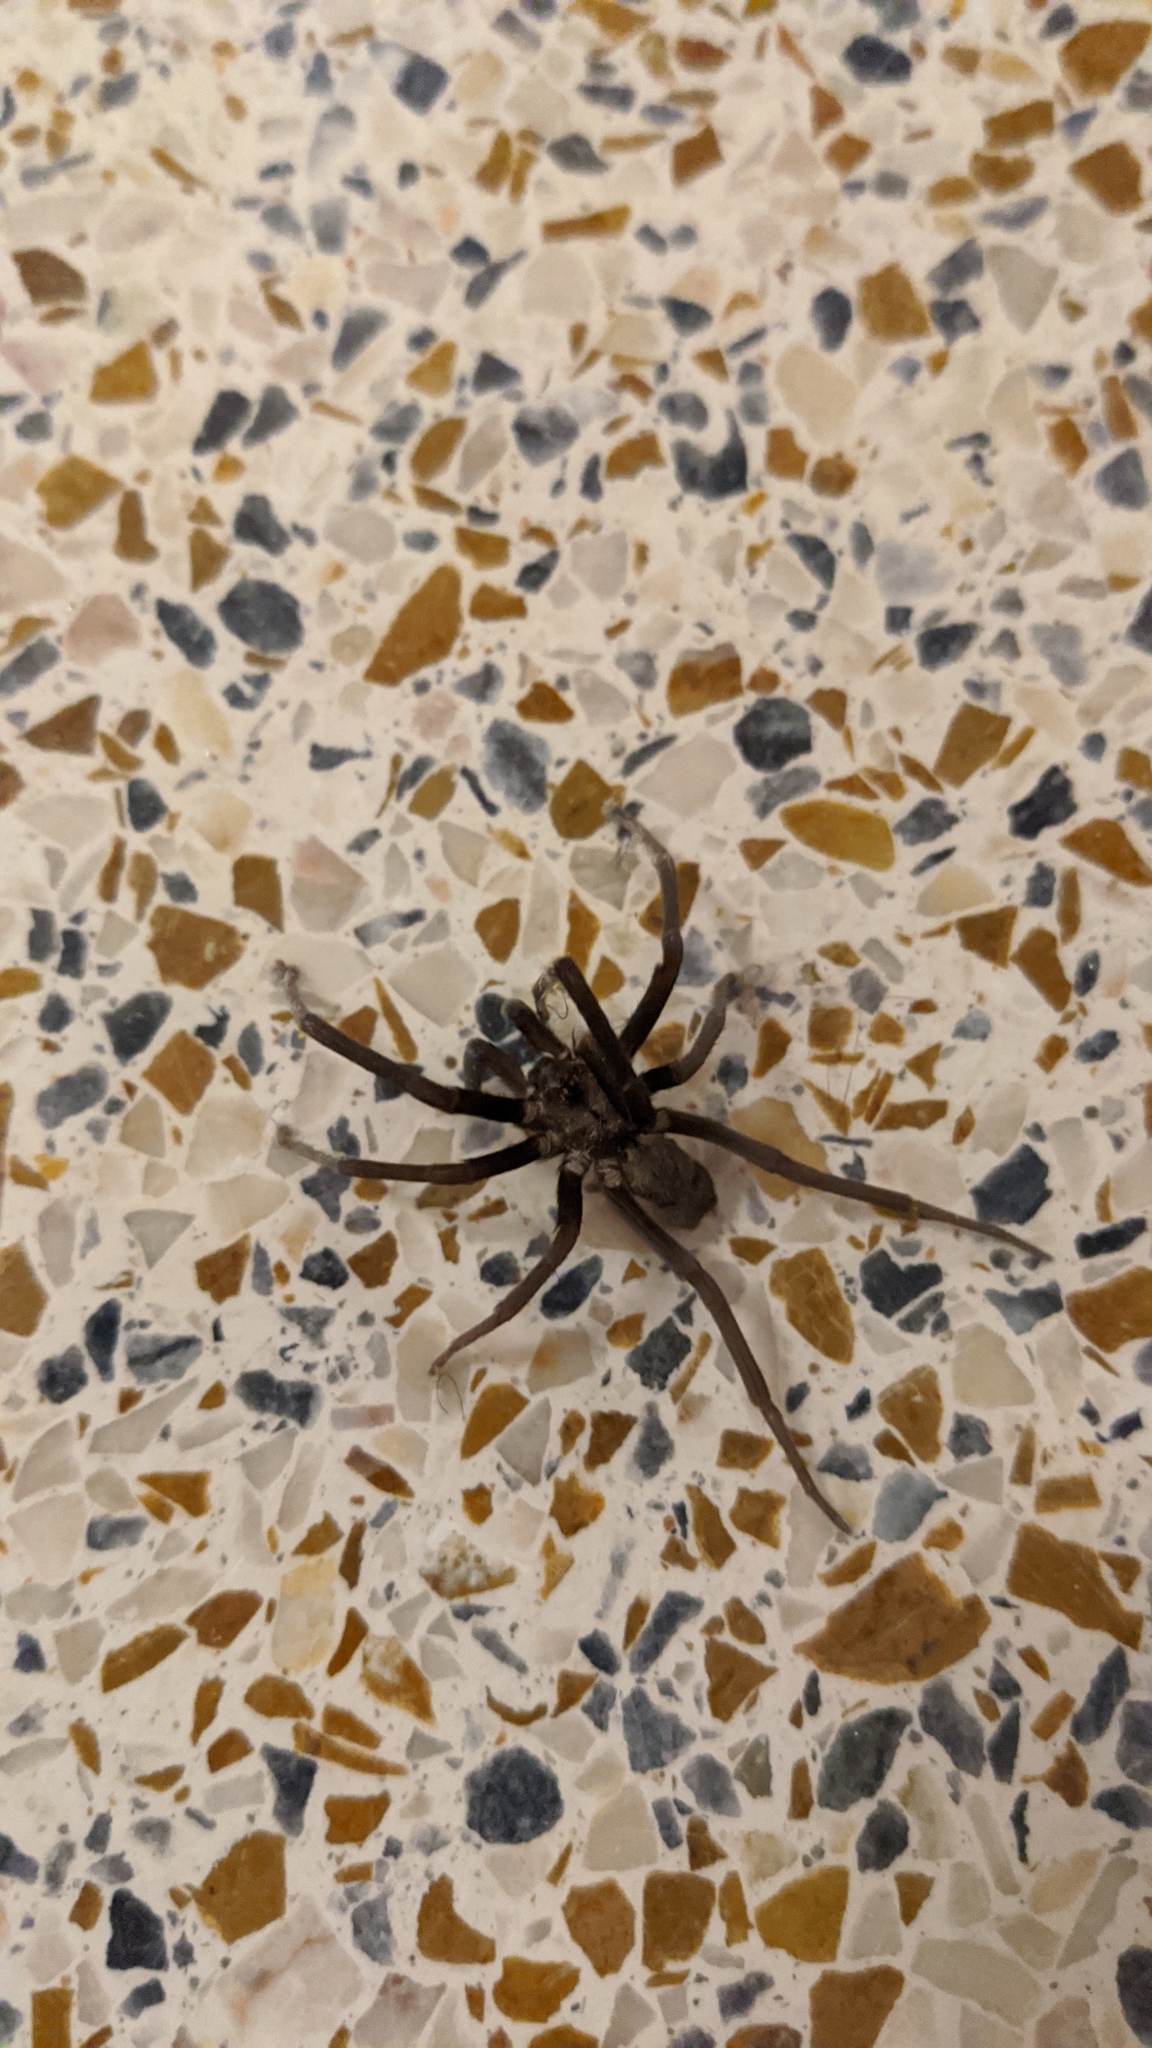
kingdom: Animalia
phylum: Arthropoda
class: Arachnida
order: Araneae
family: Filistatidae
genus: Kukulcania
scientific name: Kukulcania hibernalis
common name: Crevice weaver
